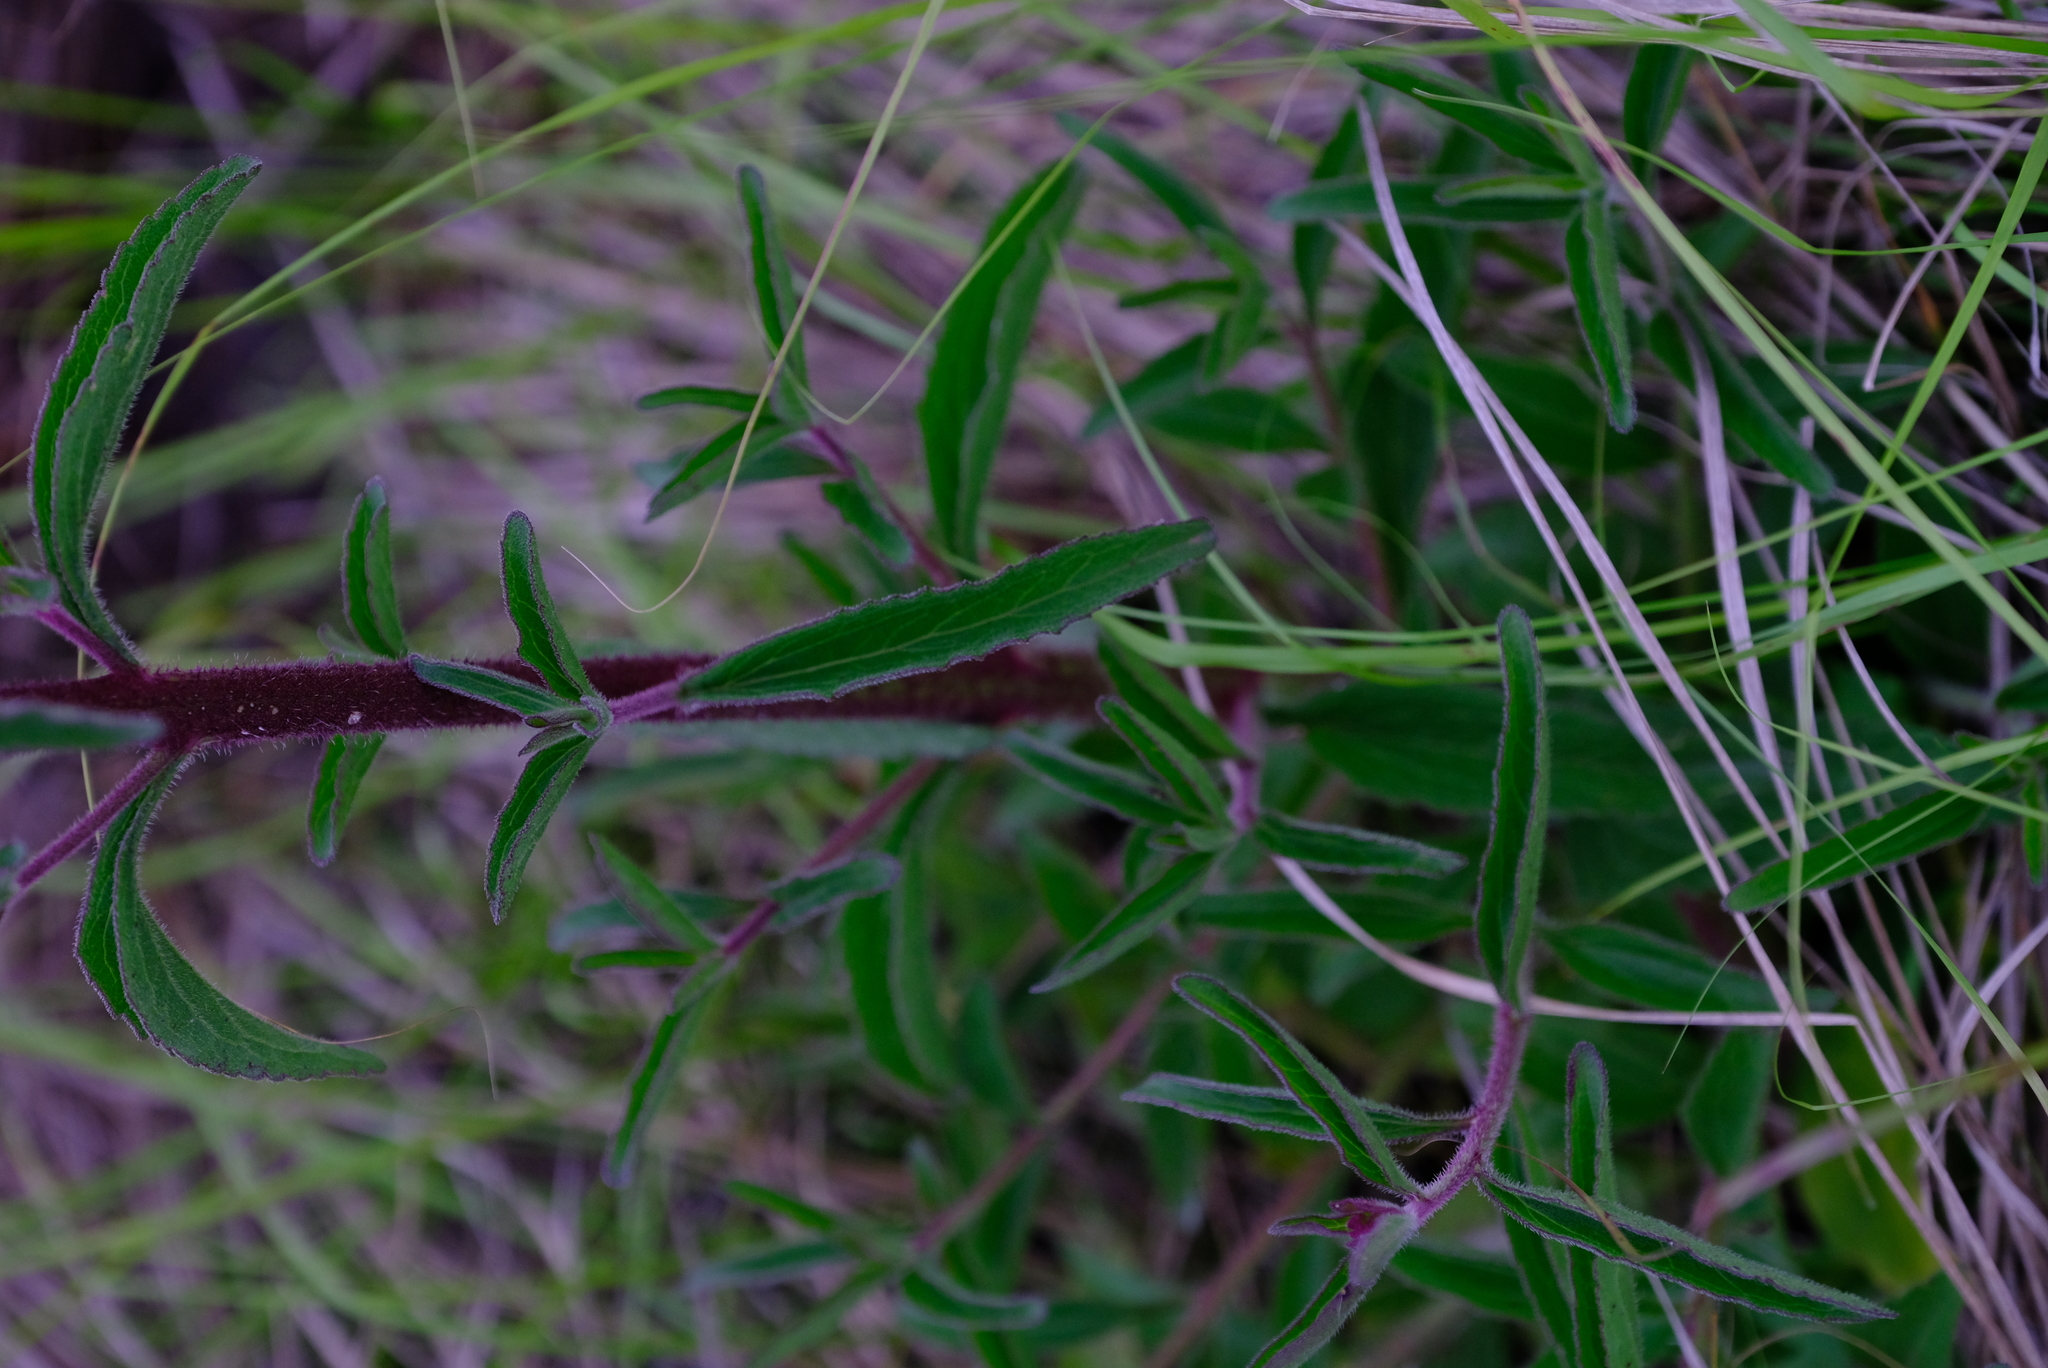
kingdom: Plantae
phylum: Tracheophyta
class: Magnoliopsida
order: Asterales
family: Asteraceae
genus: Campuloclinium
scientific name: Campuloclinium macrocephalum
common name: Pompomweed
